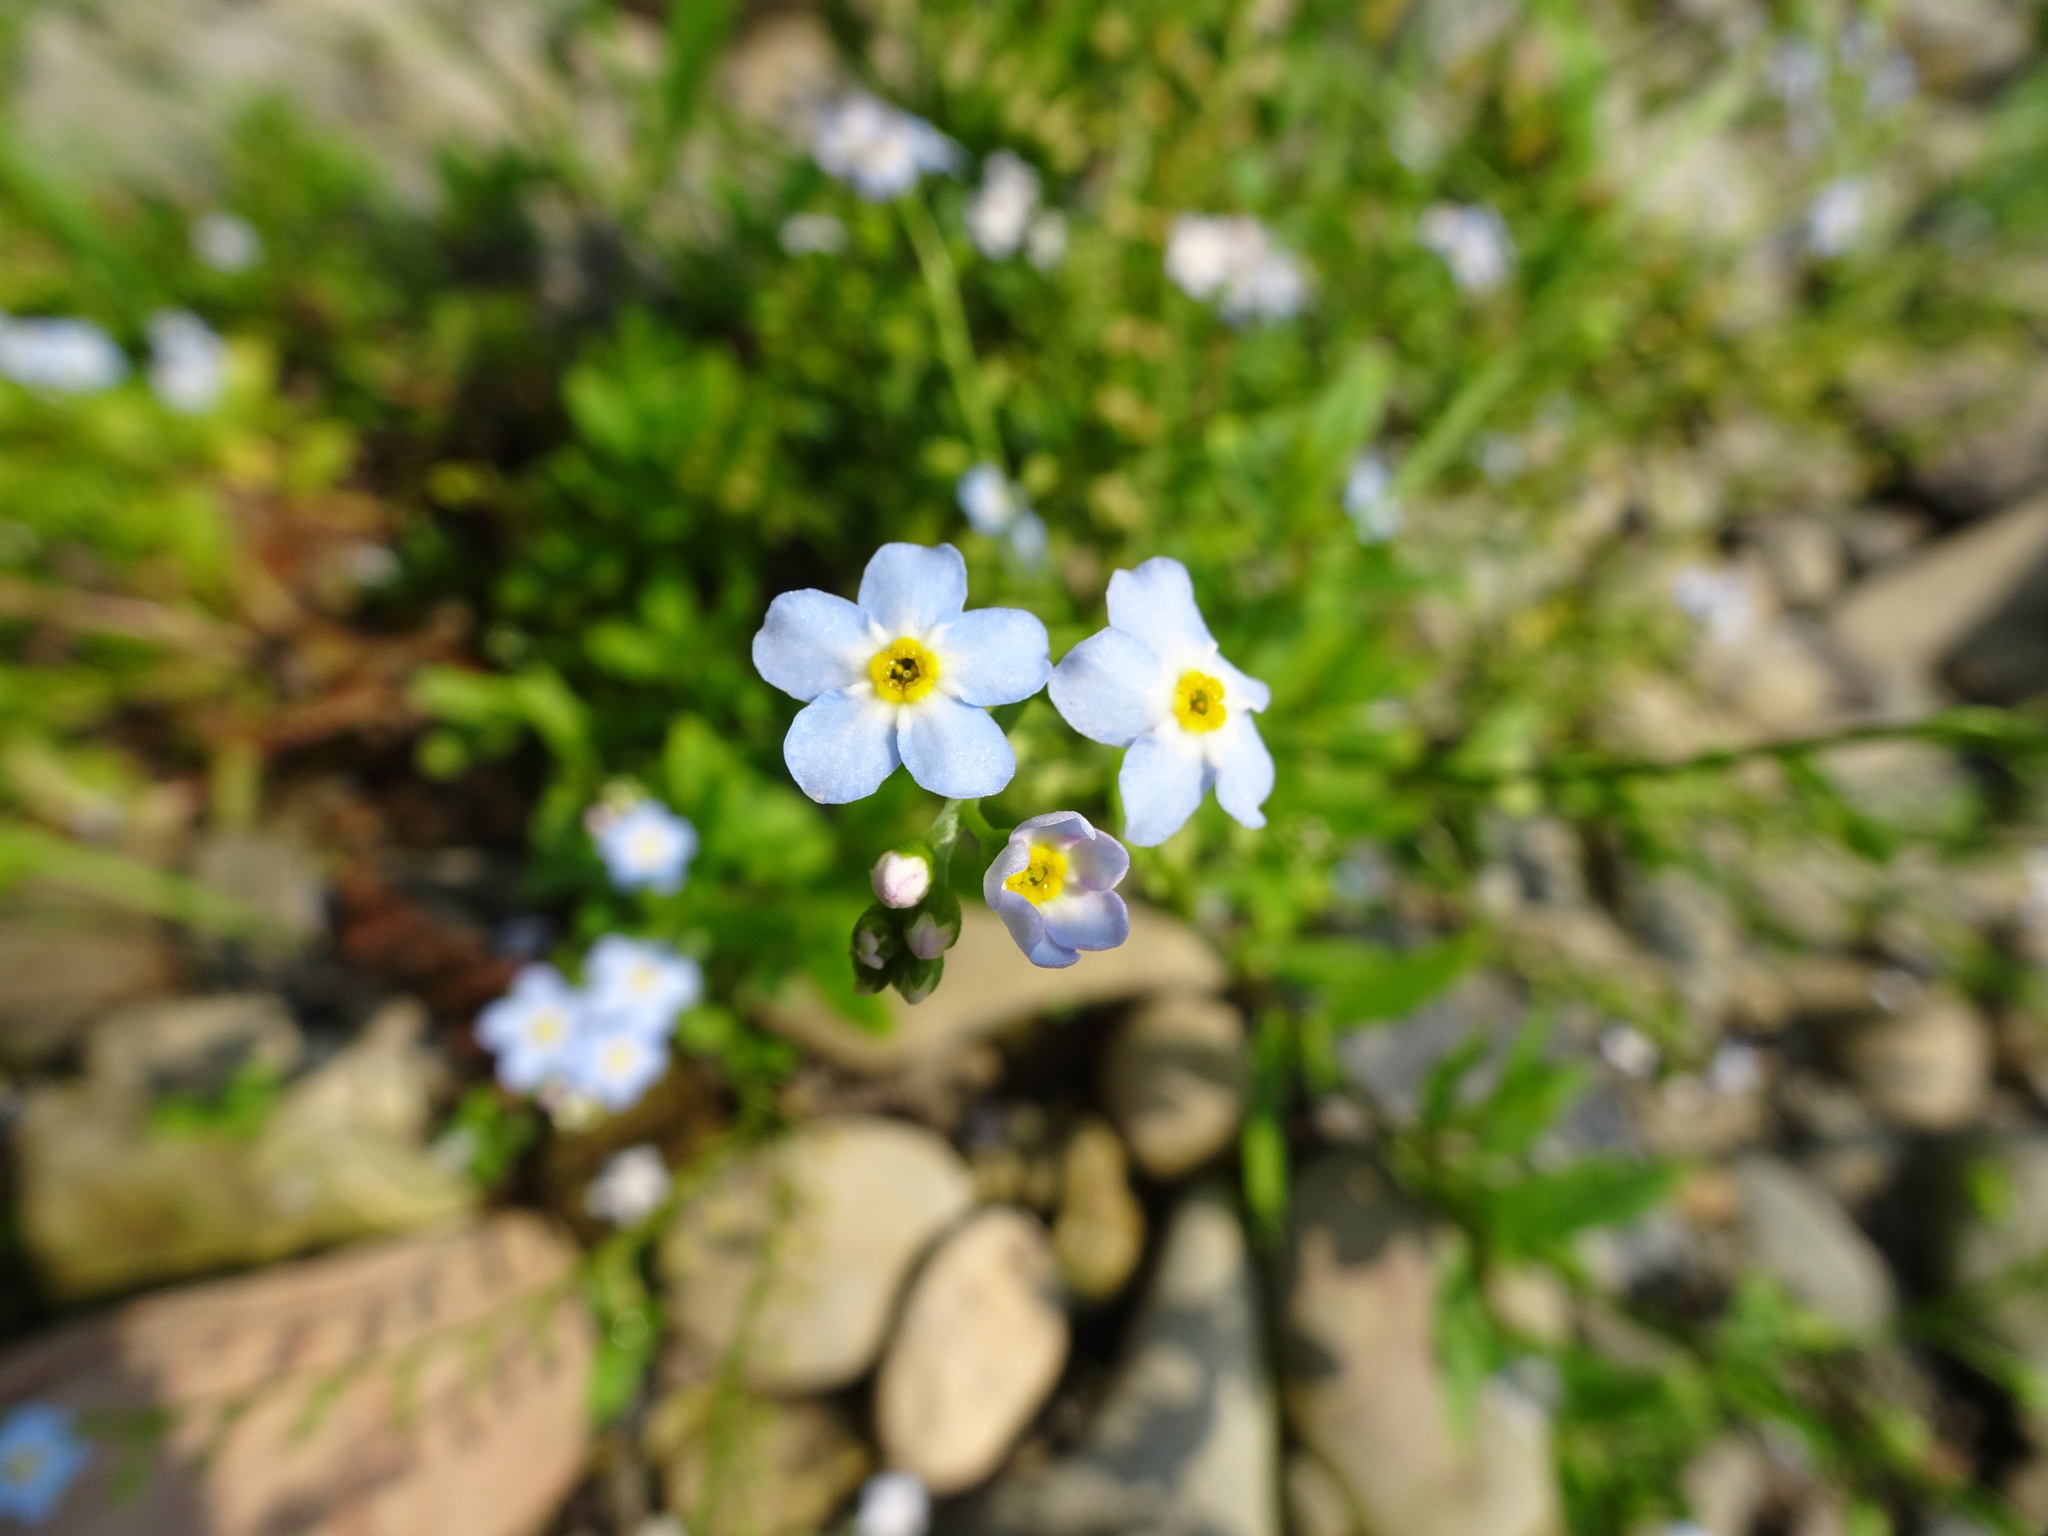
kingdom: Plantae
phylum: Tracheophyta
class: Magnoliopsida
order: Boraginales
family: Boraginaceae
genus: Myosotis
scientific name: Myosotis scorpioides
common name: Water forget-me-not
